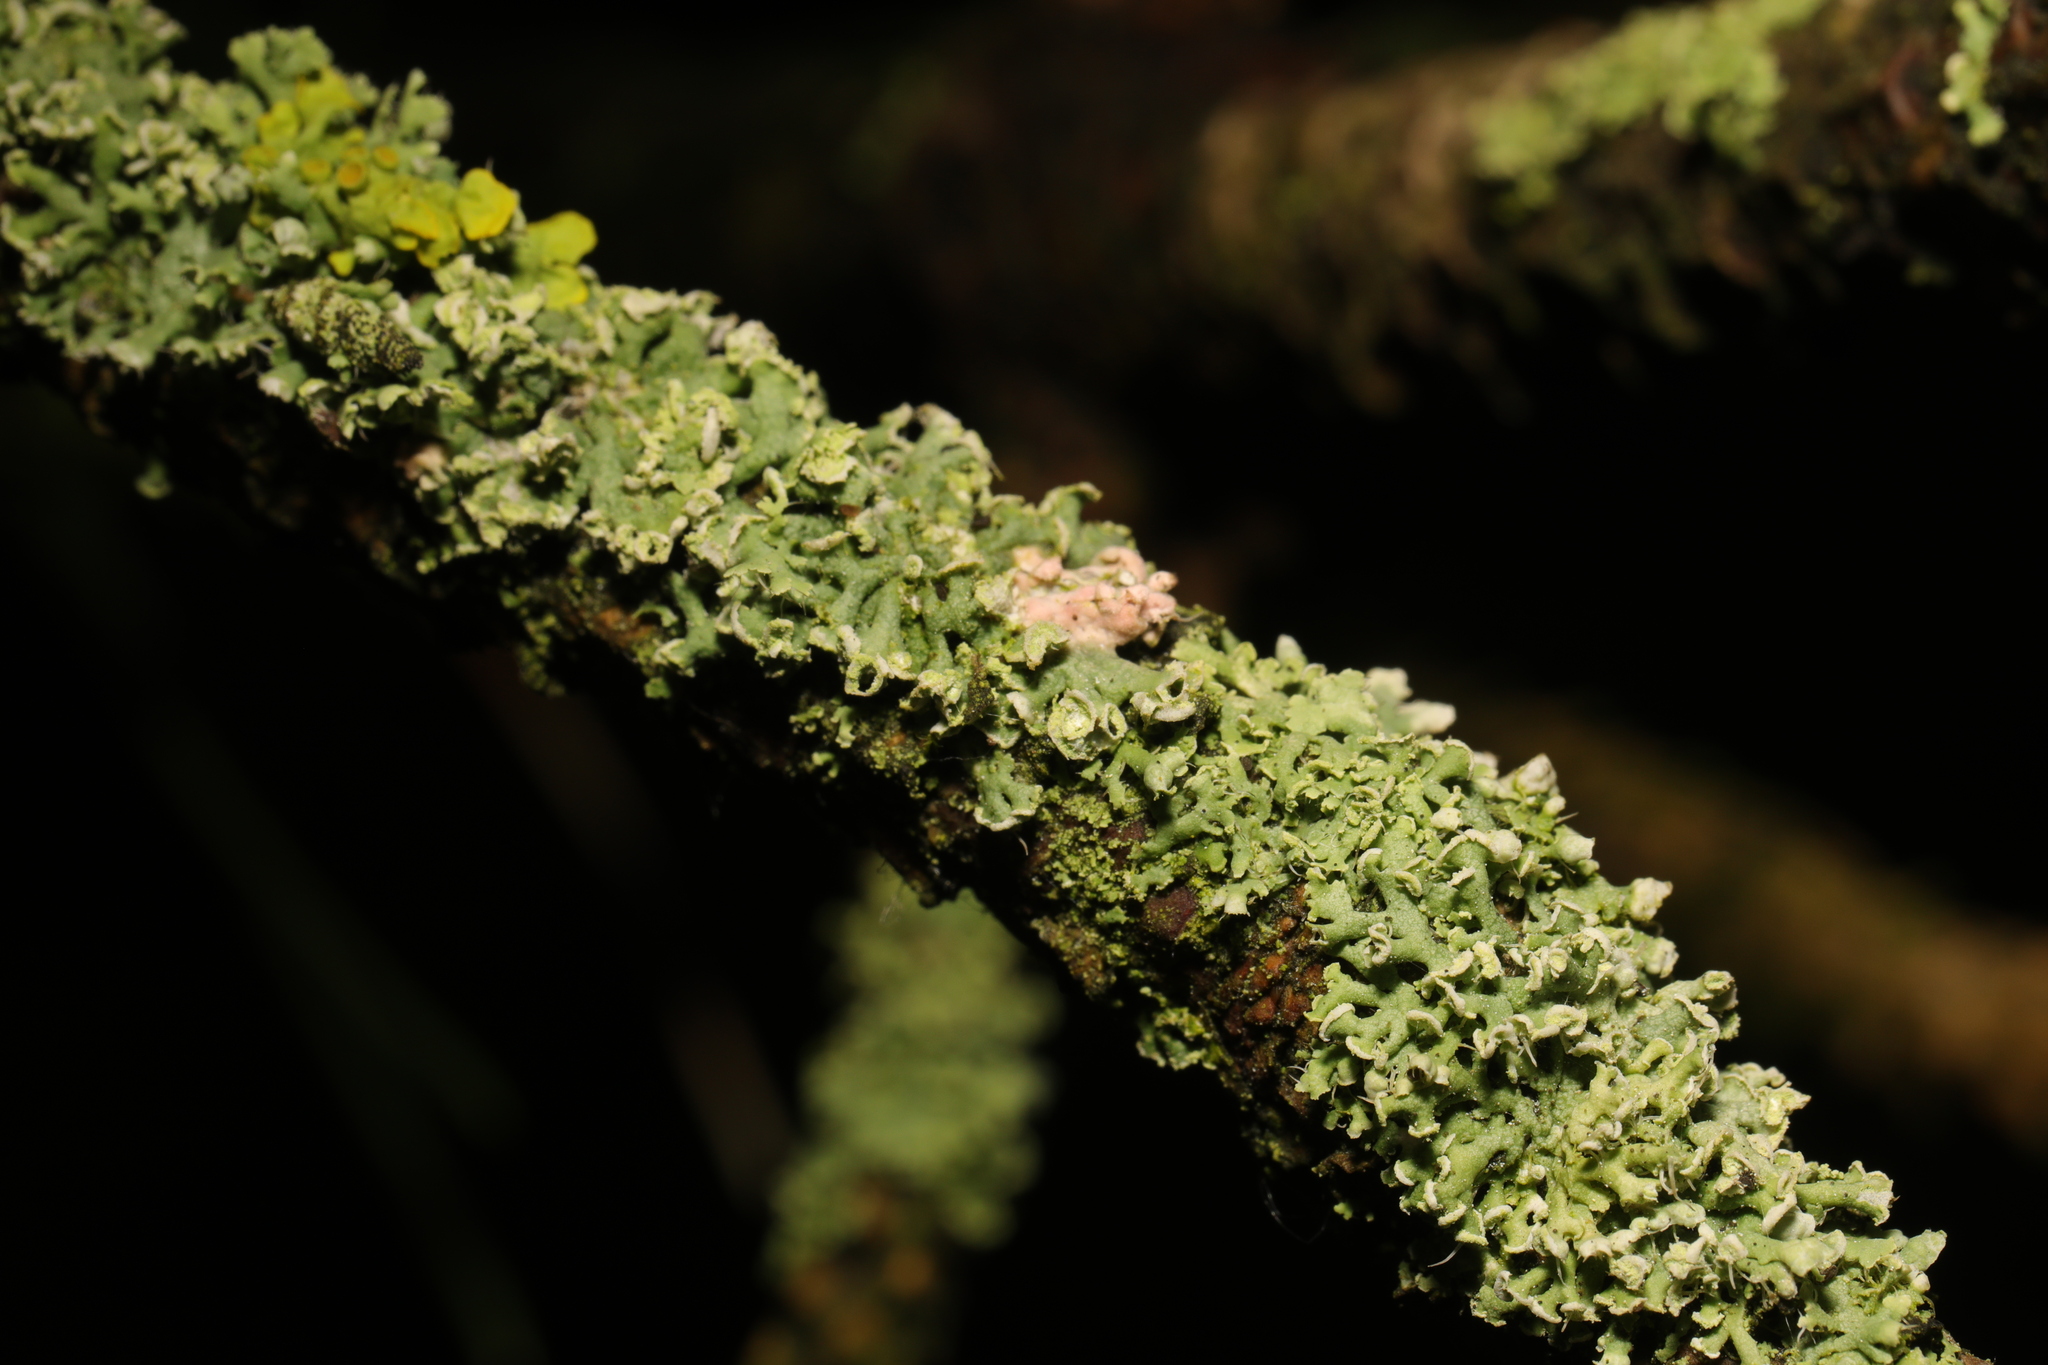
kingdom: Fungi
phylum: Ascomycota
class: Lecanoromycetes
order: Caliciales
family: Physciaceae
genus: Physcia
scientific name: Physcia tenella
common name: Fringed rosette lichen
